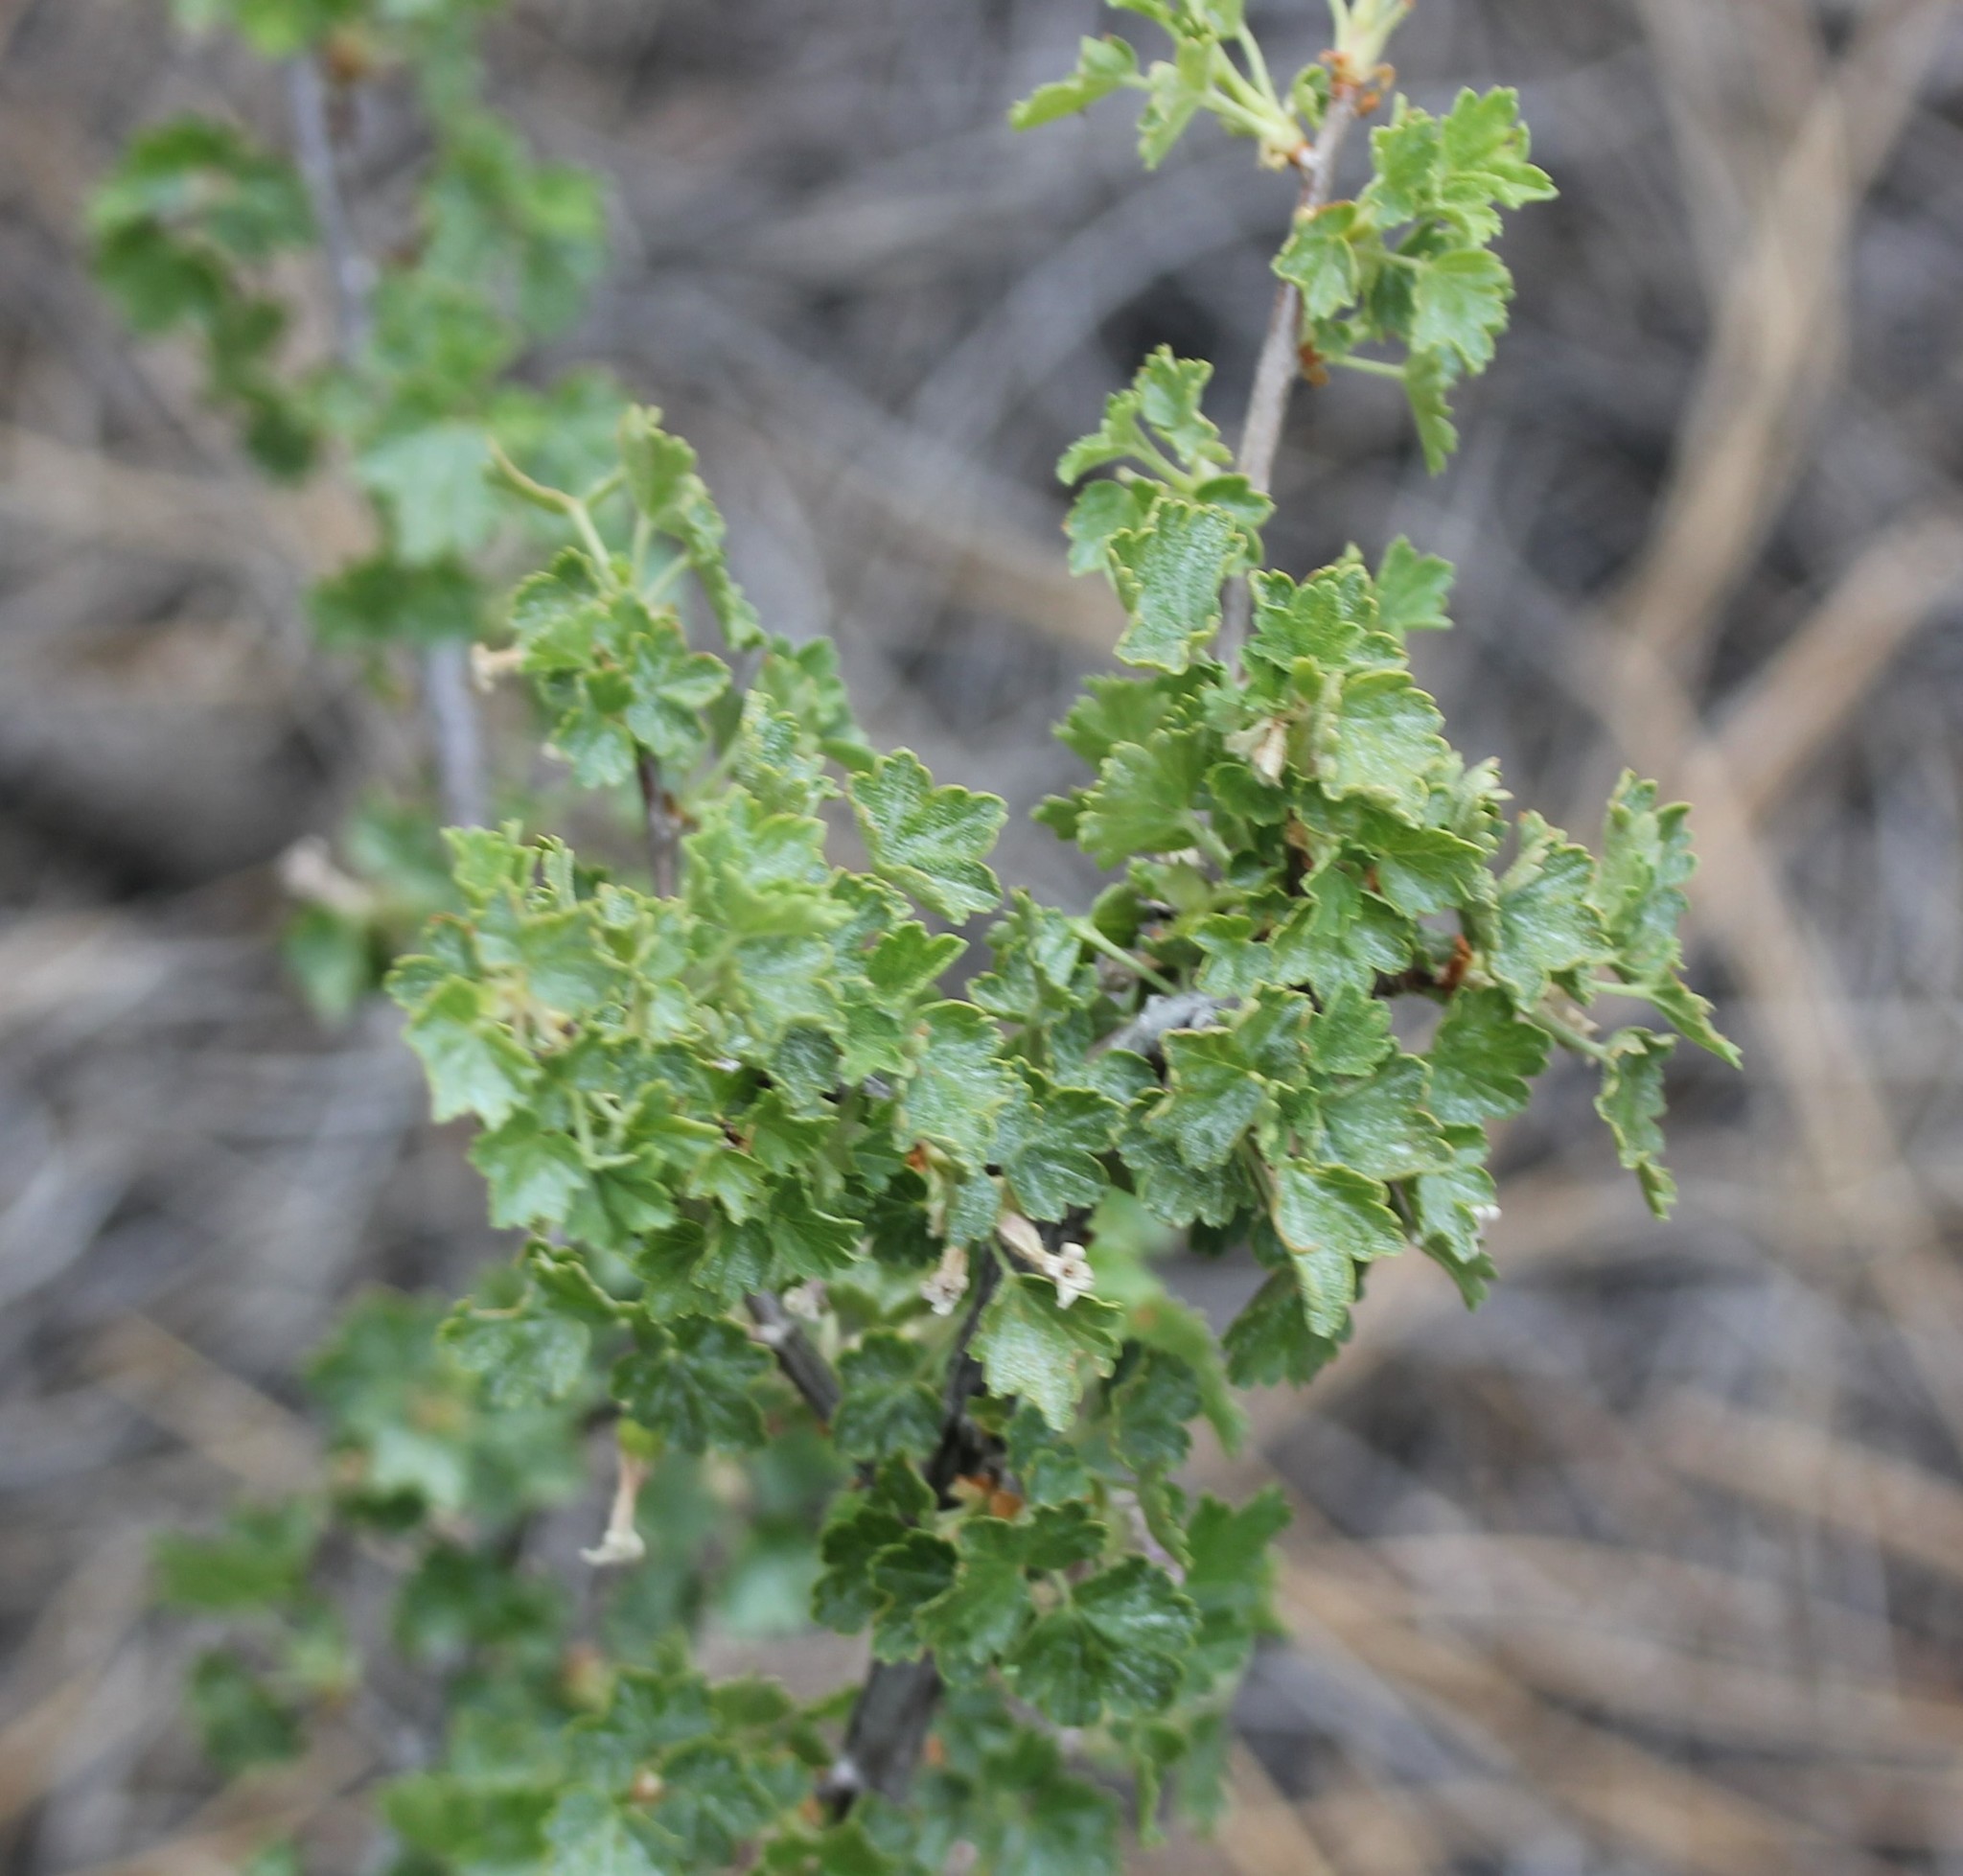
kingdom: Plantae
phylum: Tracheophyta
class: Magnoliopsida
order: Saxifragales
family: Grossulariaceae
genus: Ribes
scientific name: Ribes cereum
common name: Wax currant
